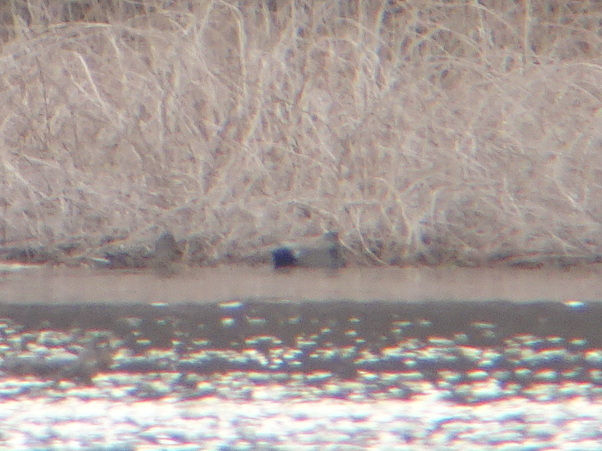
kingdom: Animalia
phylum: Chordata
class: Aves
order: Anseriformes
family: Anatidae
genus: Mareca
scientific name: Mareca strepera
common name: Gadwall
